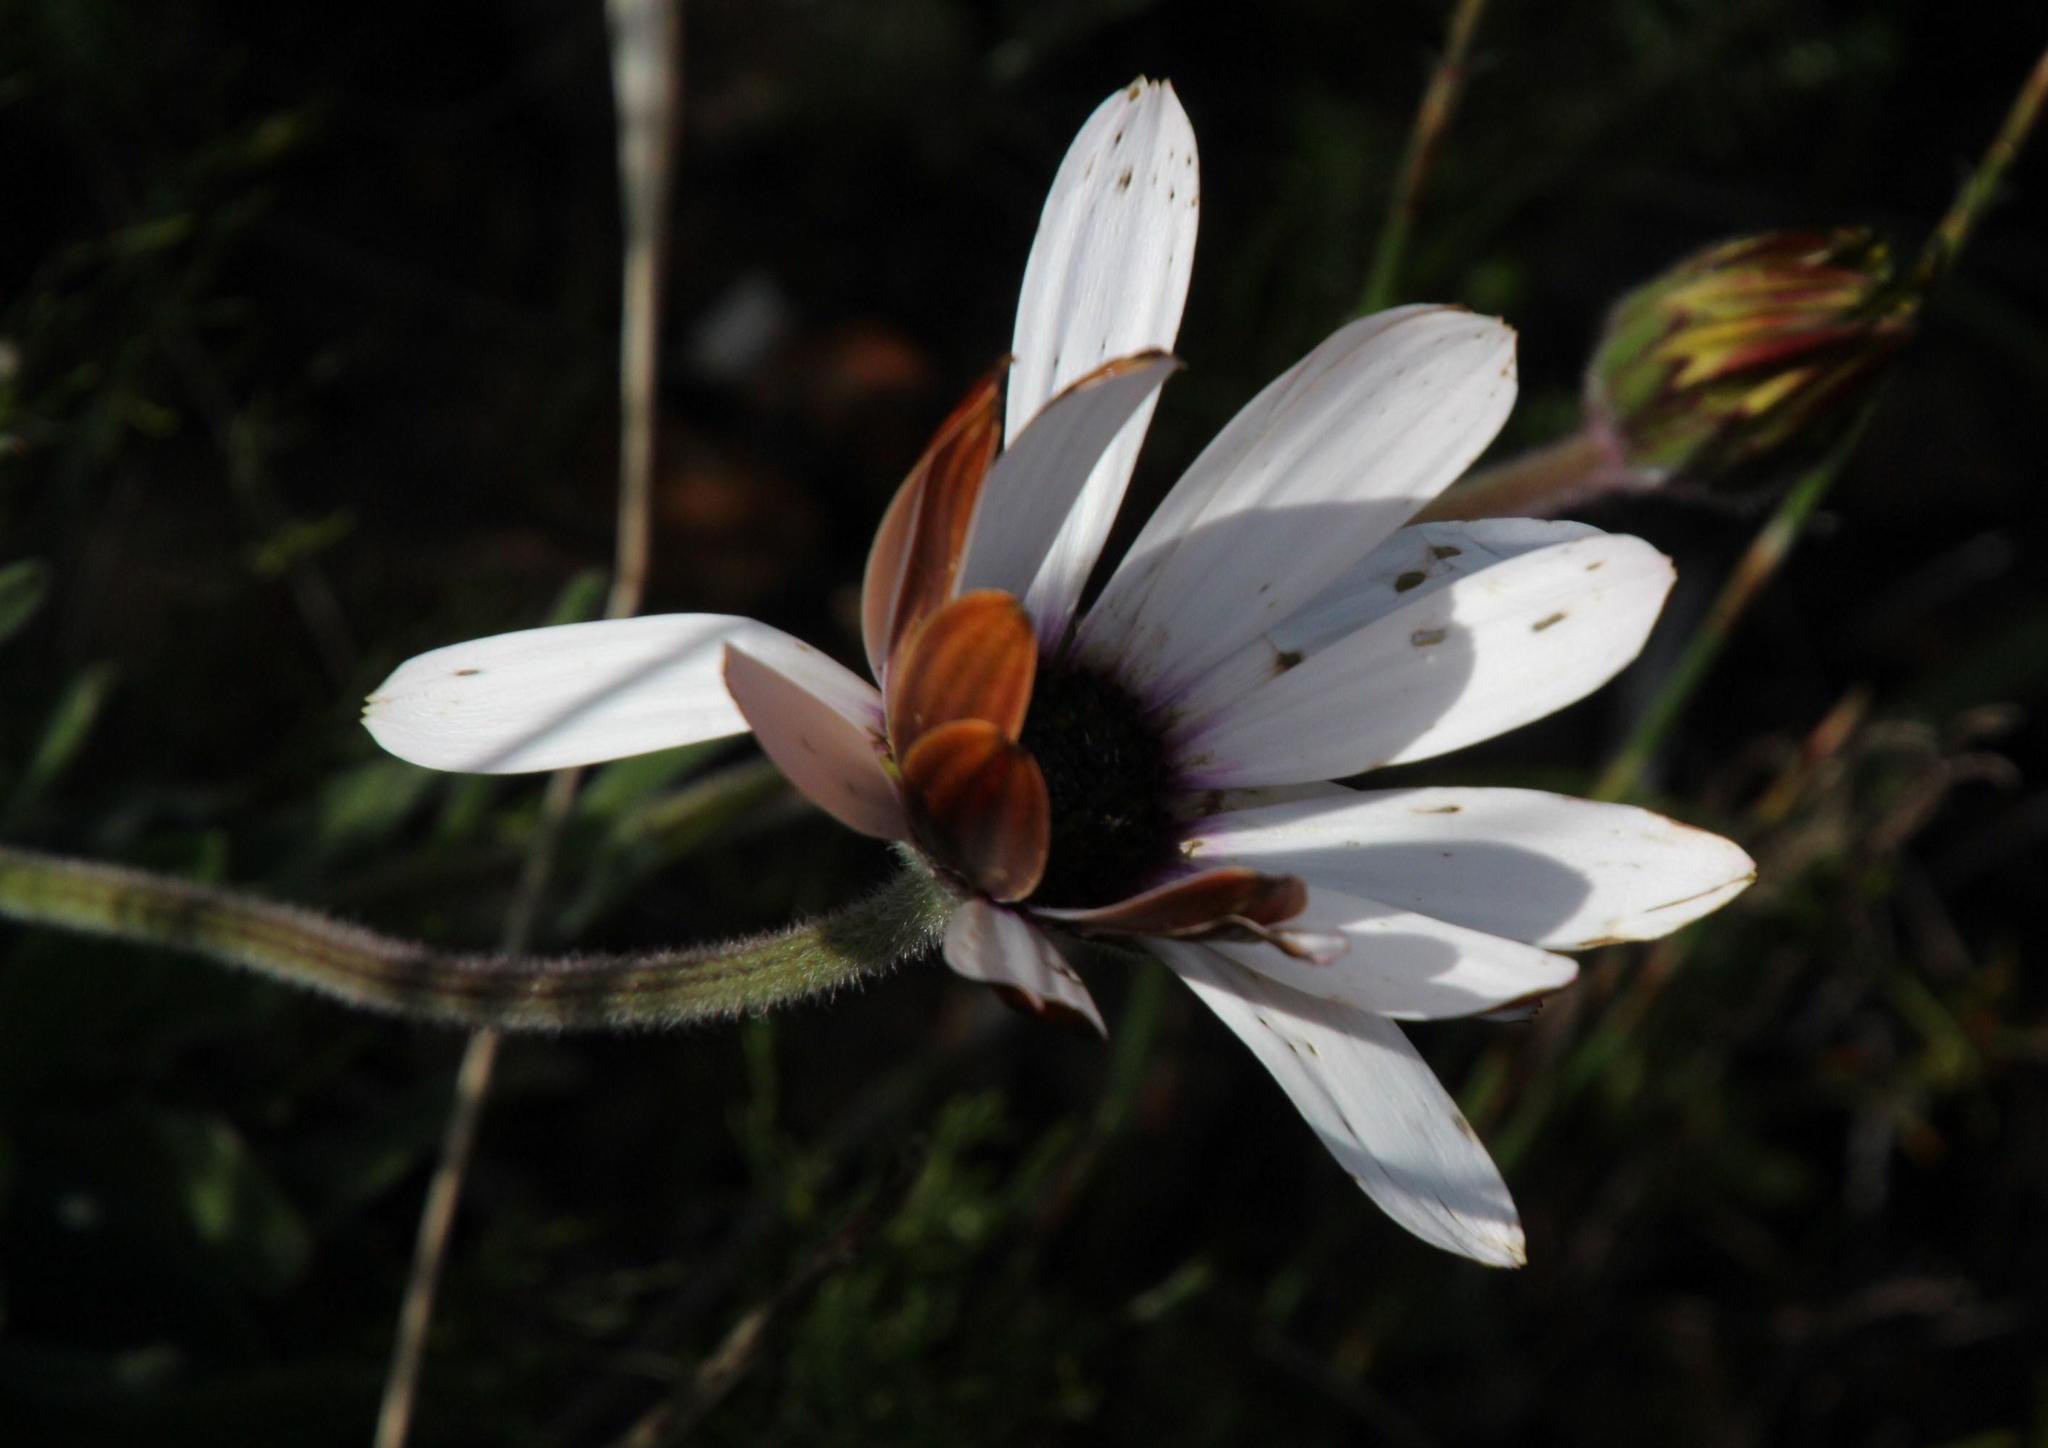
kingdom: Plantae
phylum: Tracheophyta
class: Magnoliopsida
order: Asterales
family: Asteraceae
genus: Dimorphotheca
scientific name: Dimorphotheca nudicaulis
